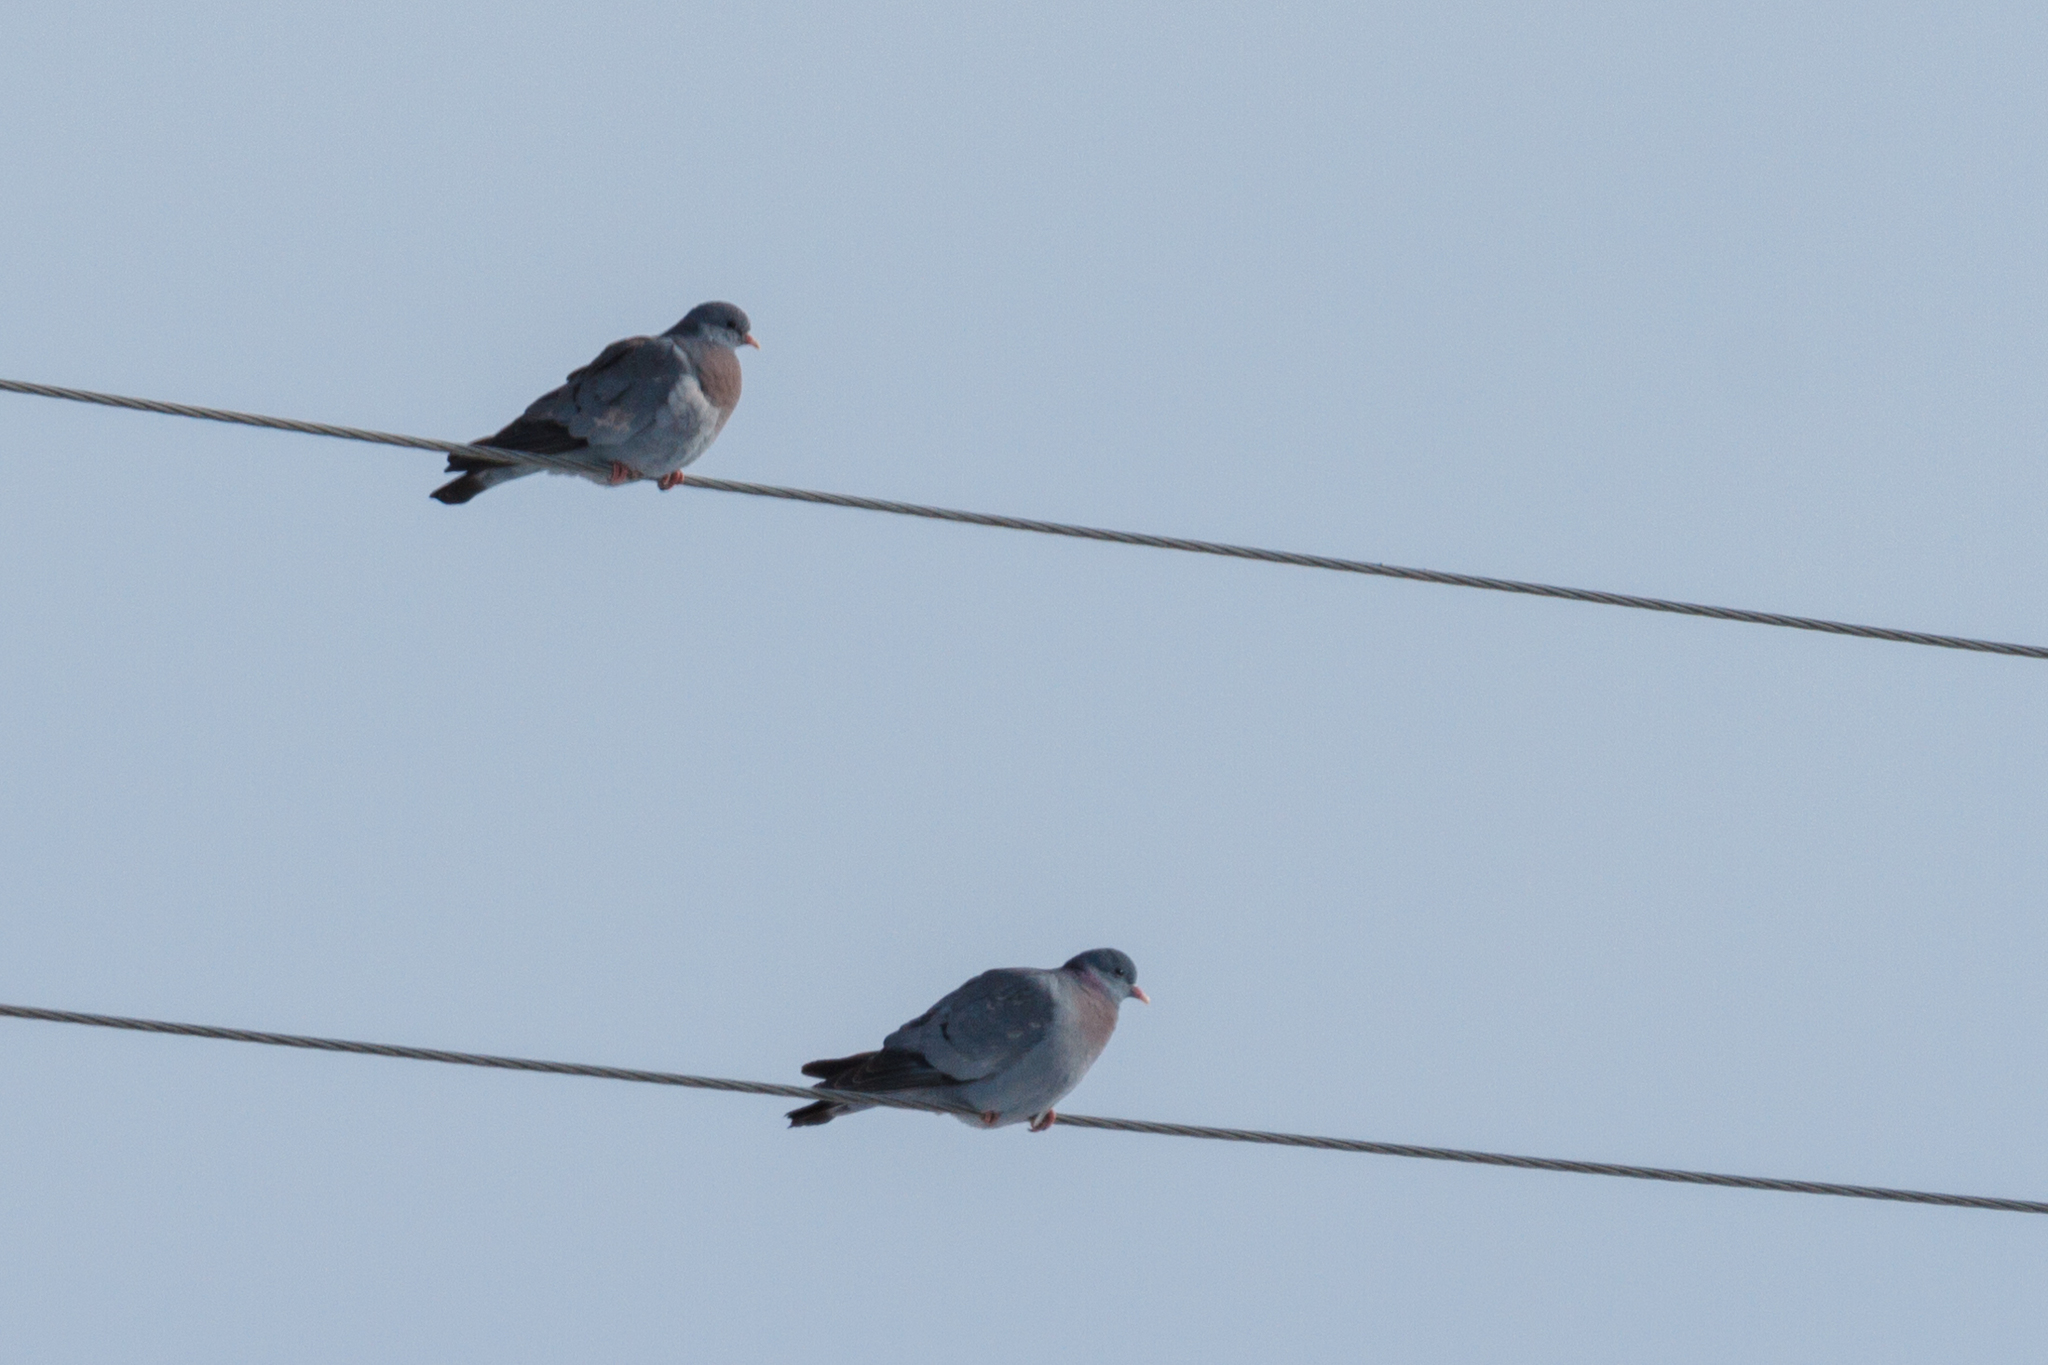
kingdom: Animalia
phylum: Chordata
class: Aves
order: Columbiformes
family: Columbidae
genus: Columba
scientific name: Columba oenas
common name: Stock dove
